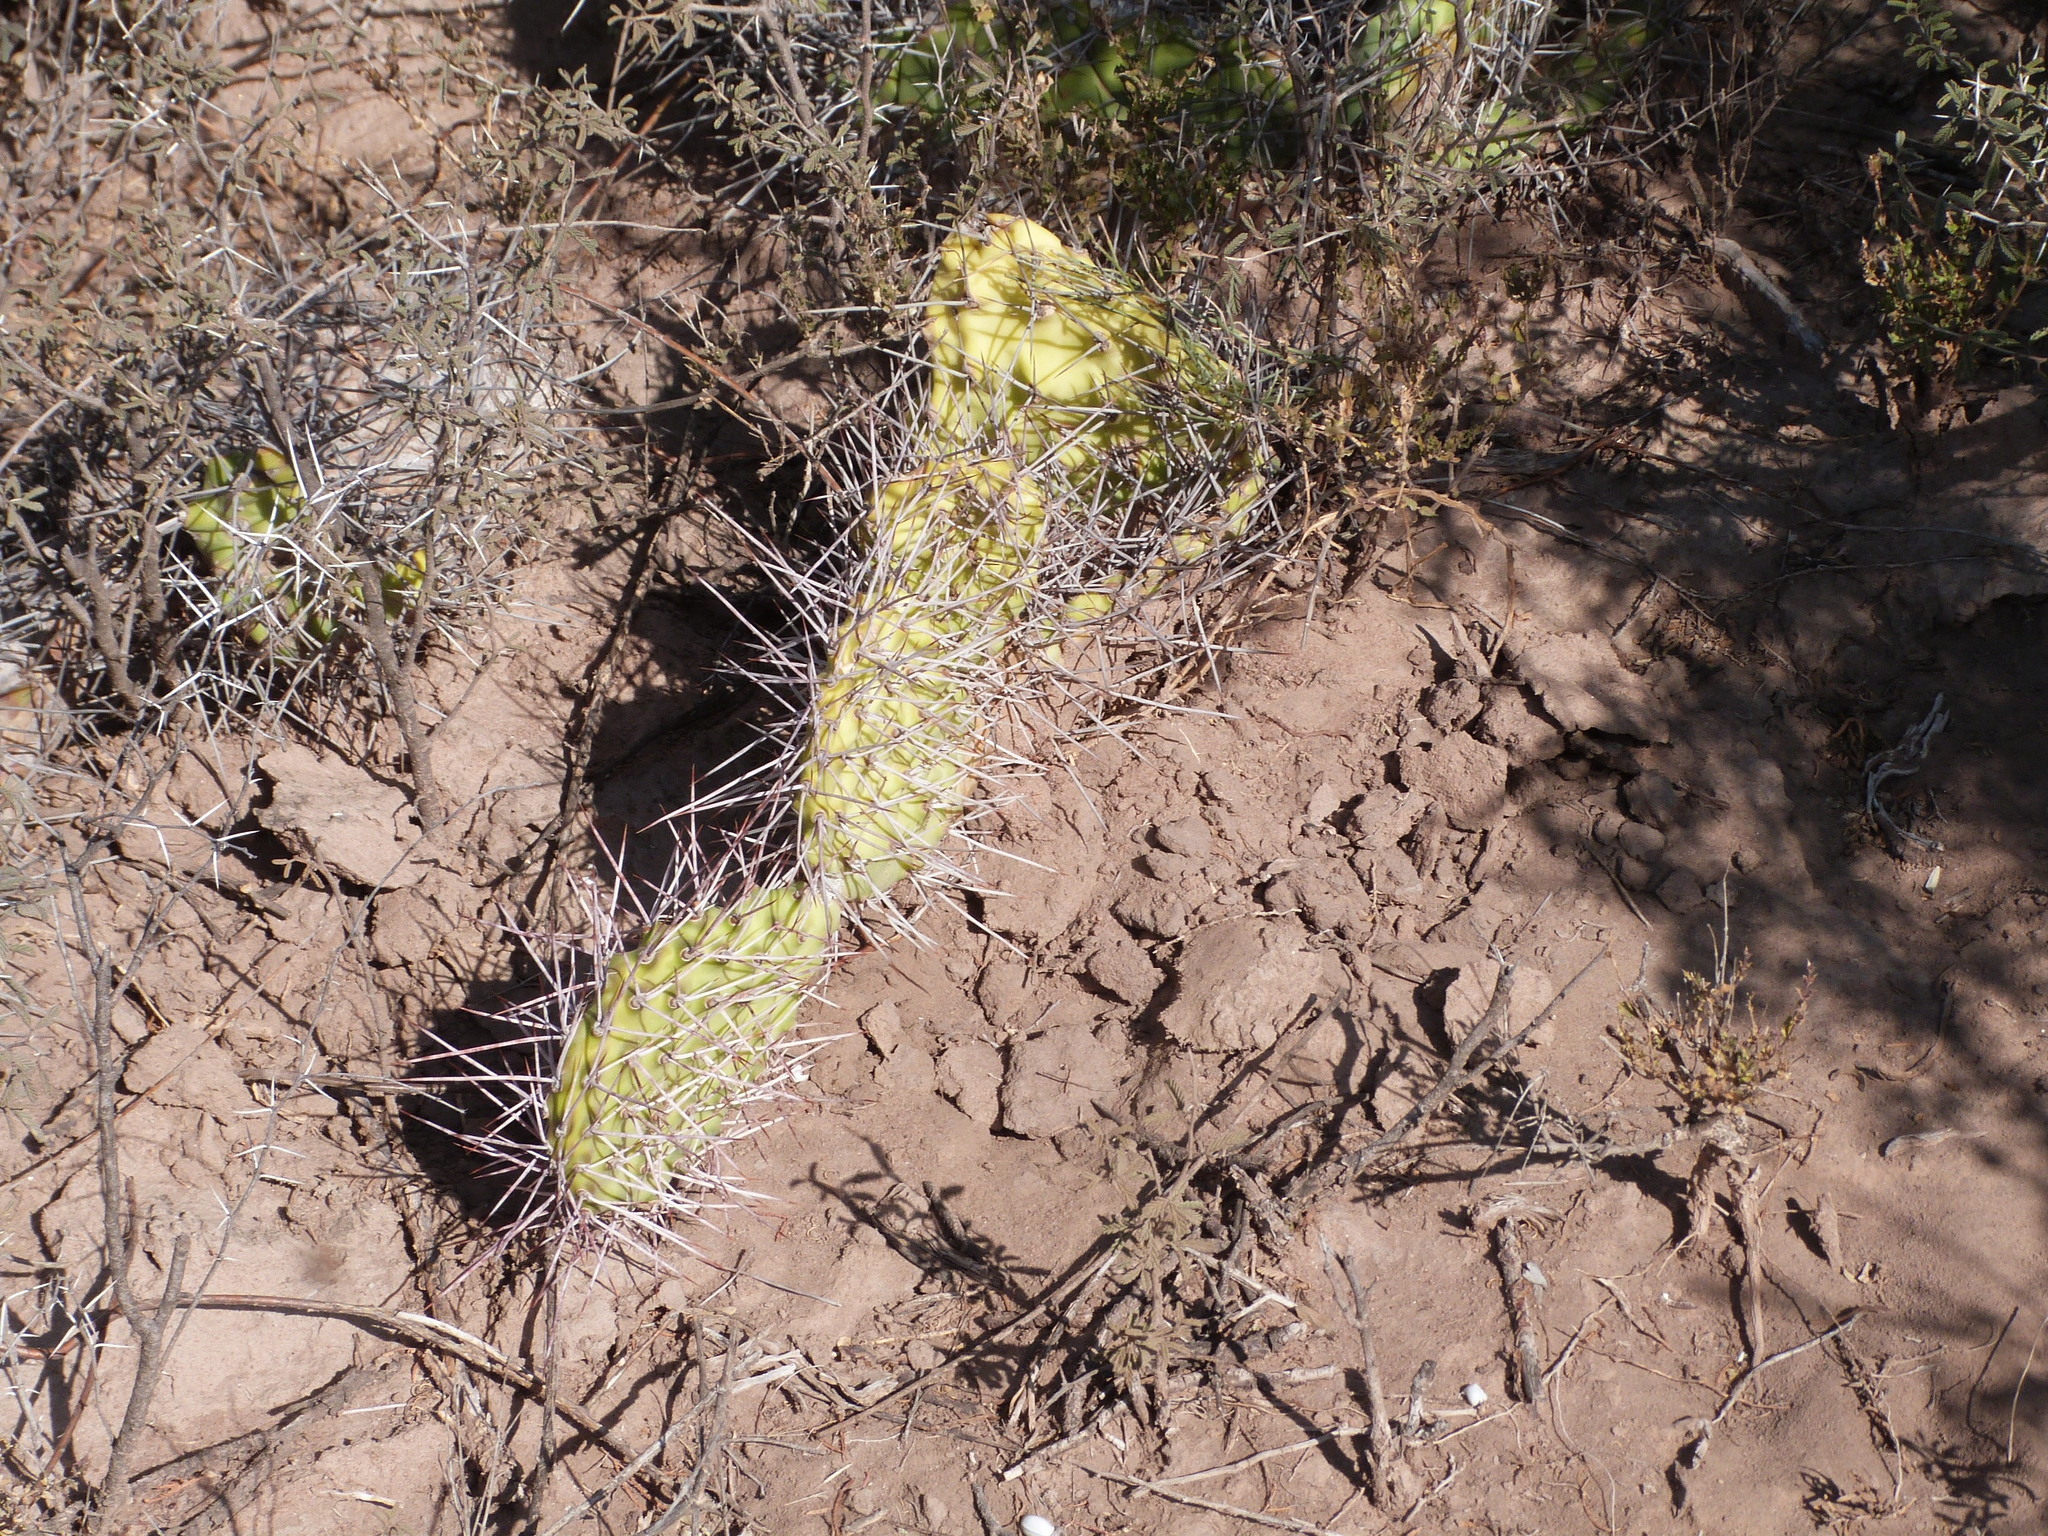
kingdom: Plantae
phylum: Tracheophyta
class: Magnoliopsida
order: Caryophyllales
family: Cactaceae
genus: Opuntia
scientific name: Opuntia sulphurea
